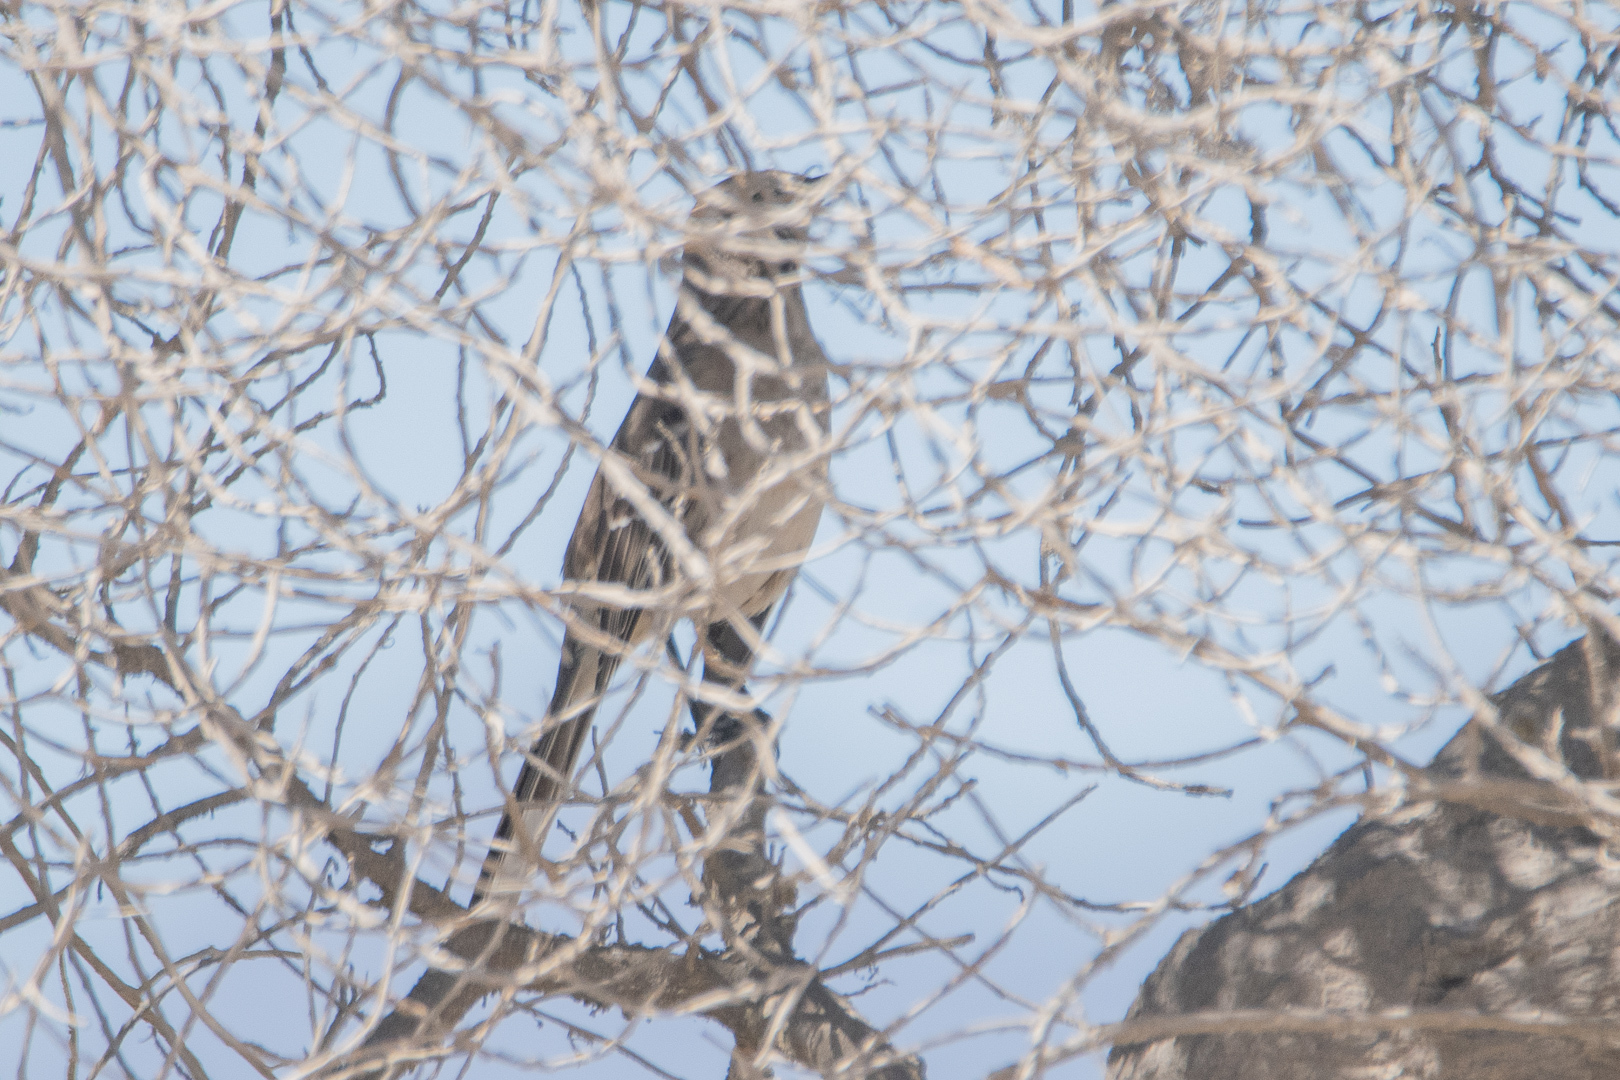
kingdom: Animalia
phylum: Chordata
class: Aves
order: Passeriformes
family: Mimidae
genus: Mimus
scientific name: Mimus thenca
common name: Chilean mockingbird
